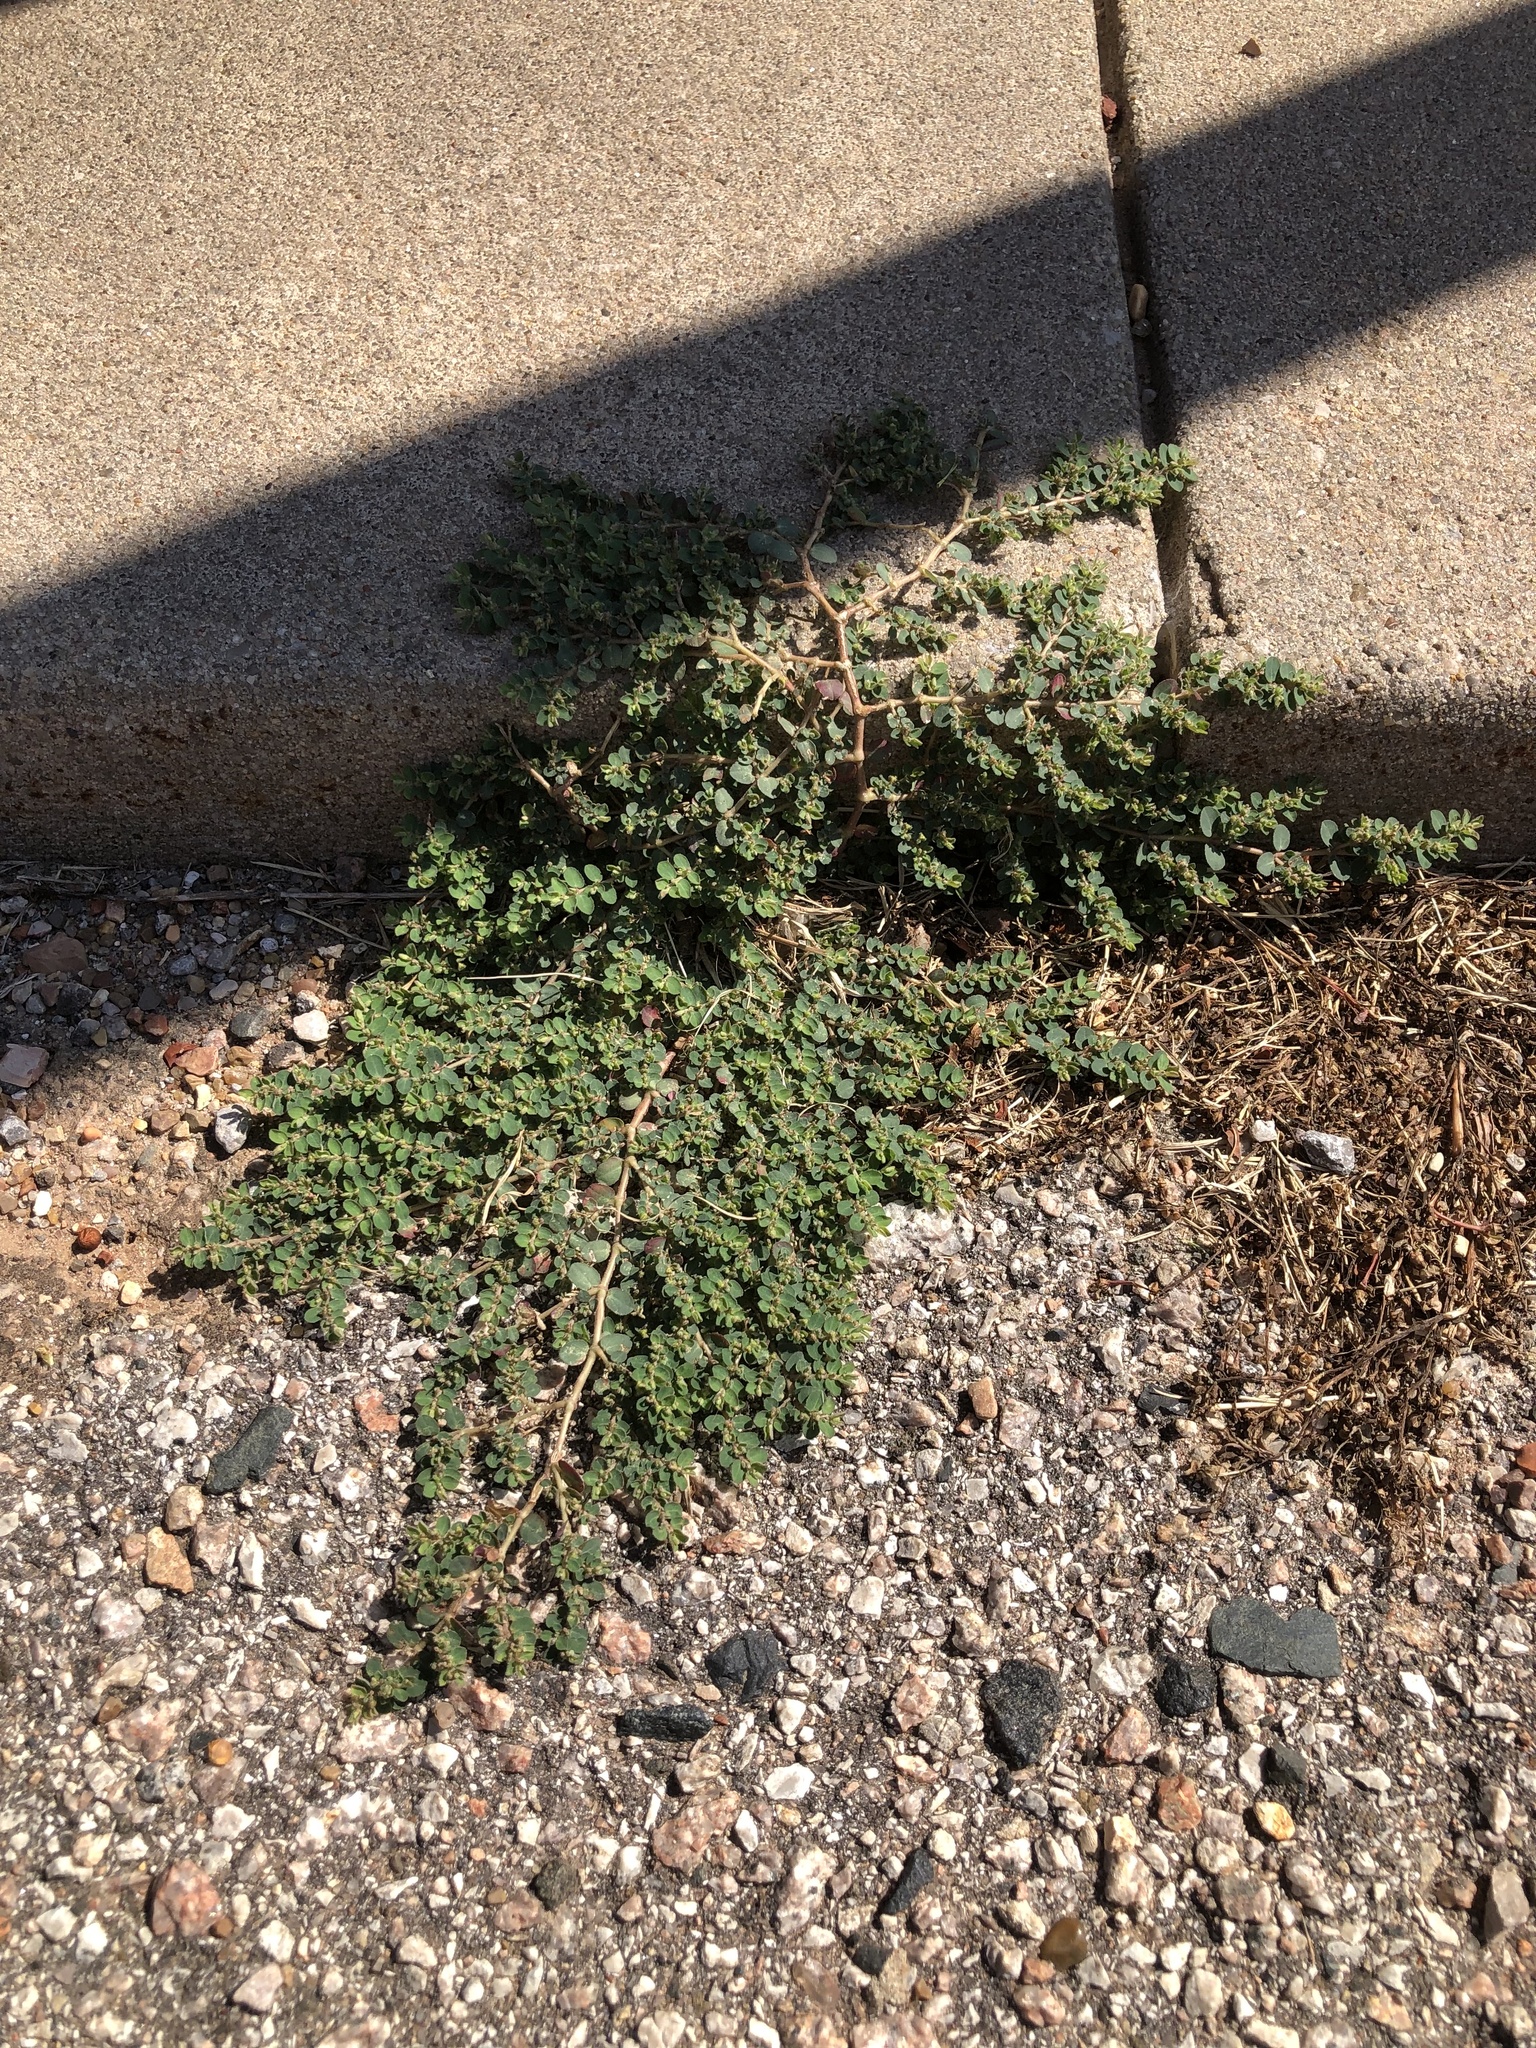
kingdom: Plantae
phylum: Tracheophyta
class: Magnoliopsida
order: Malpighiales
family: Euphorbiaceae
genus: Euphorbia
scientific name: Euphorbia prostrata
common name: Prostrate sandmat
